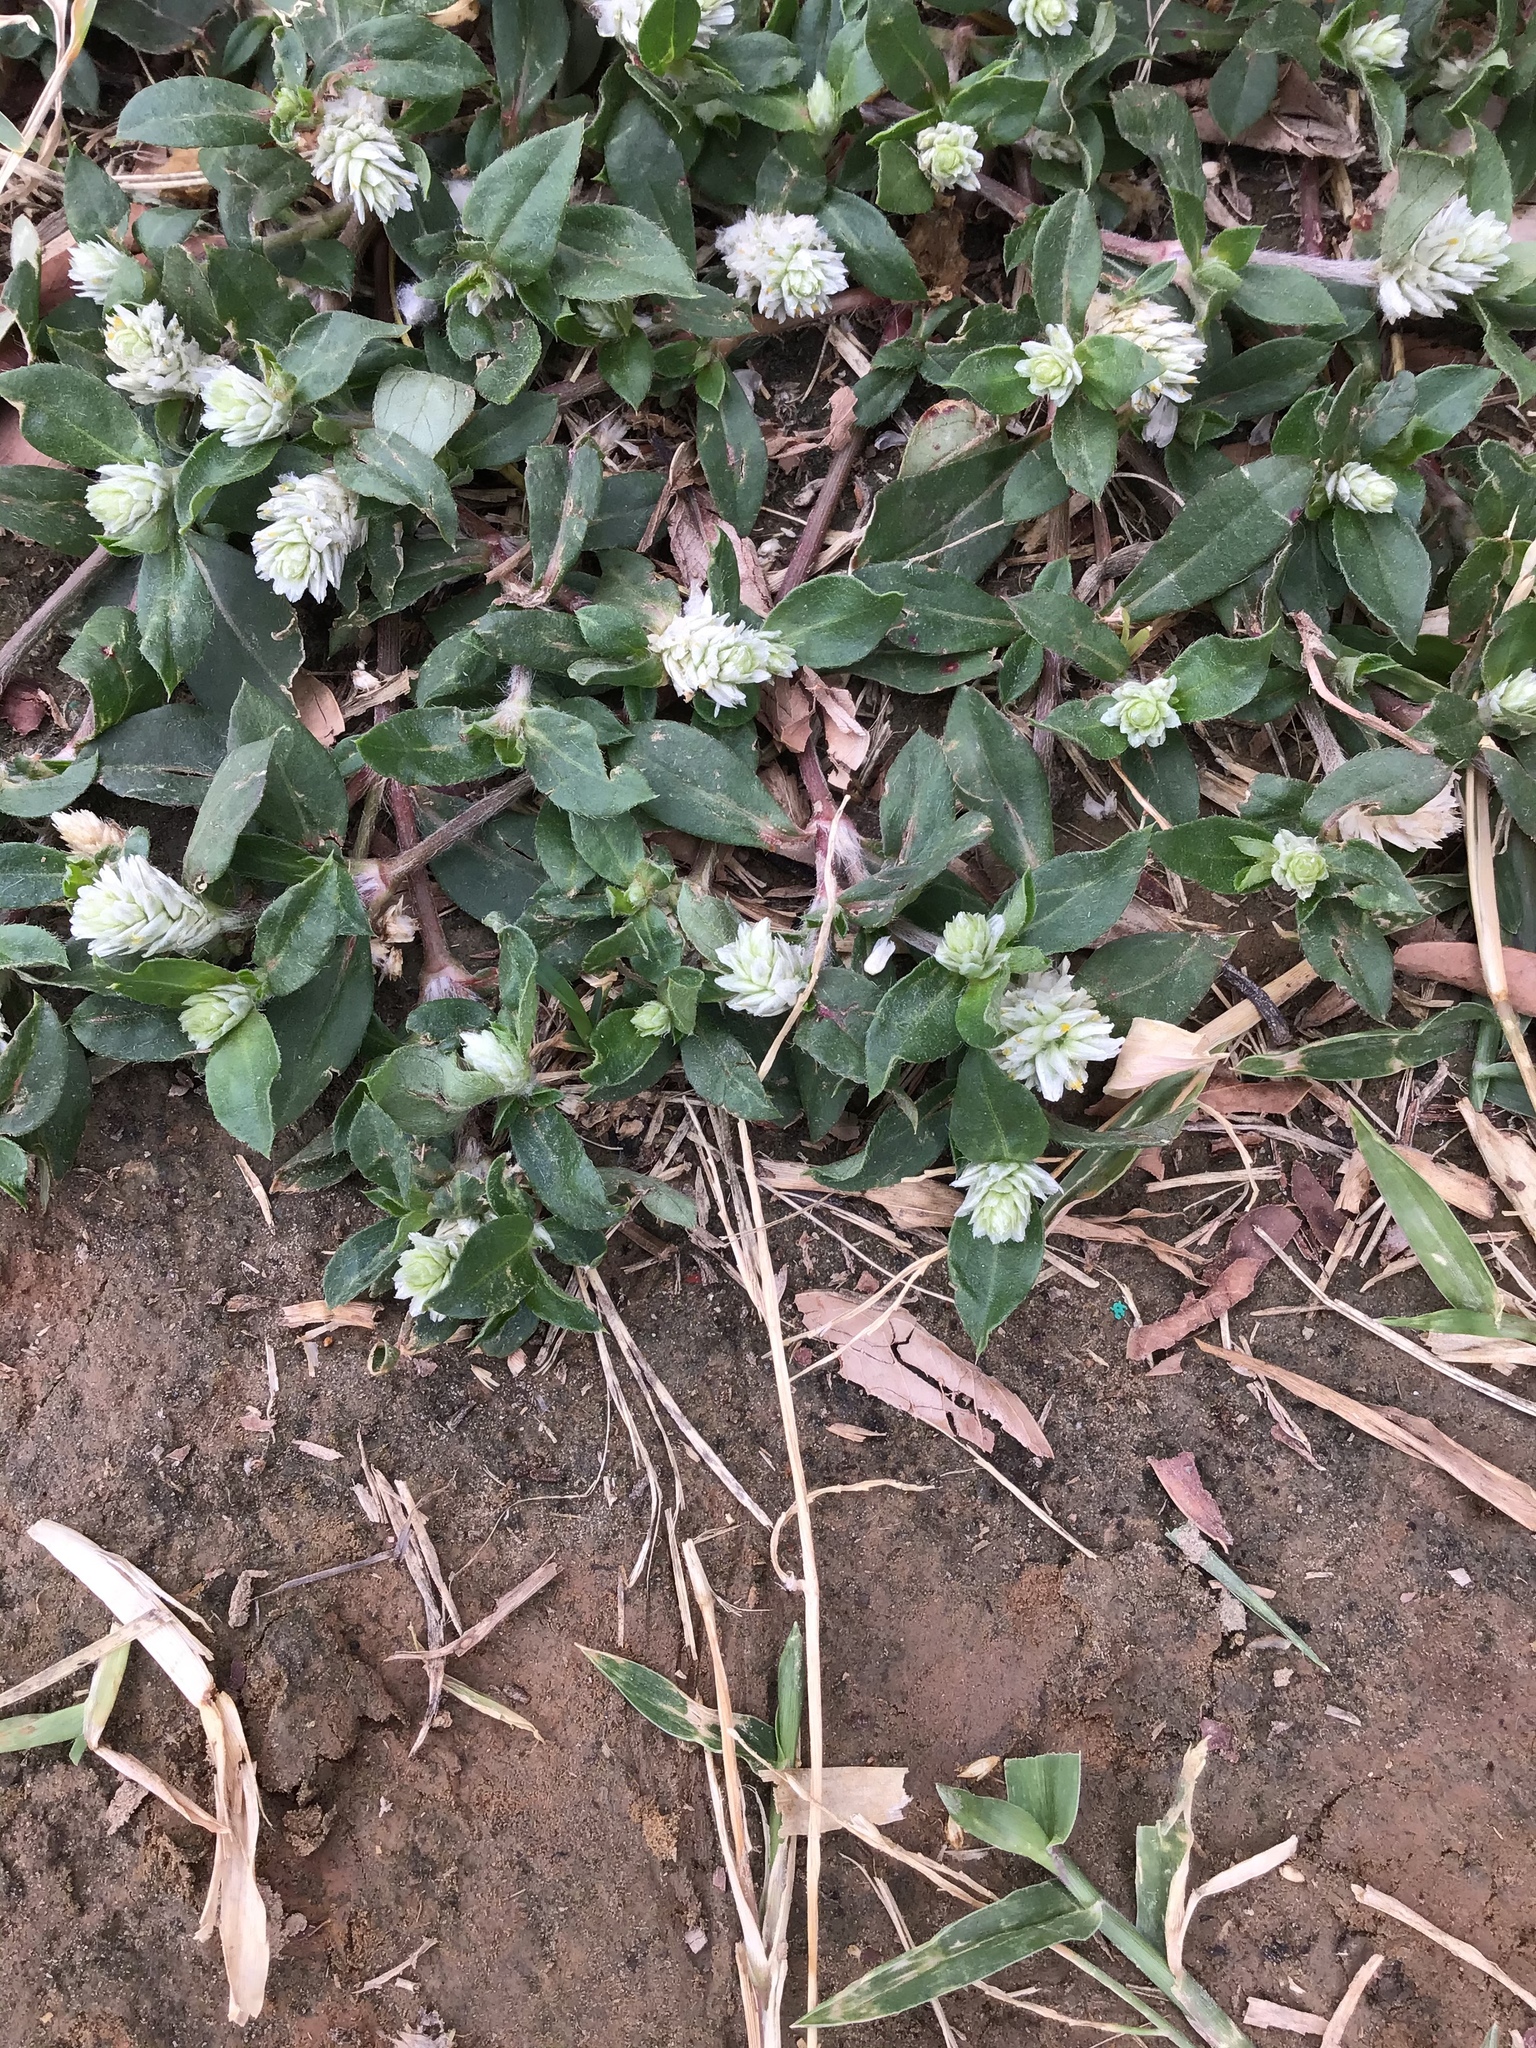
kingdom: Plantae
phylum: Tracheophyta
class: Magnoliopsida
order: Caryophyllales
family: Amaranthaceae
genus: Gomphrena
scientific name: Gomphrena celosioides
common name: Gomphrena-weed
